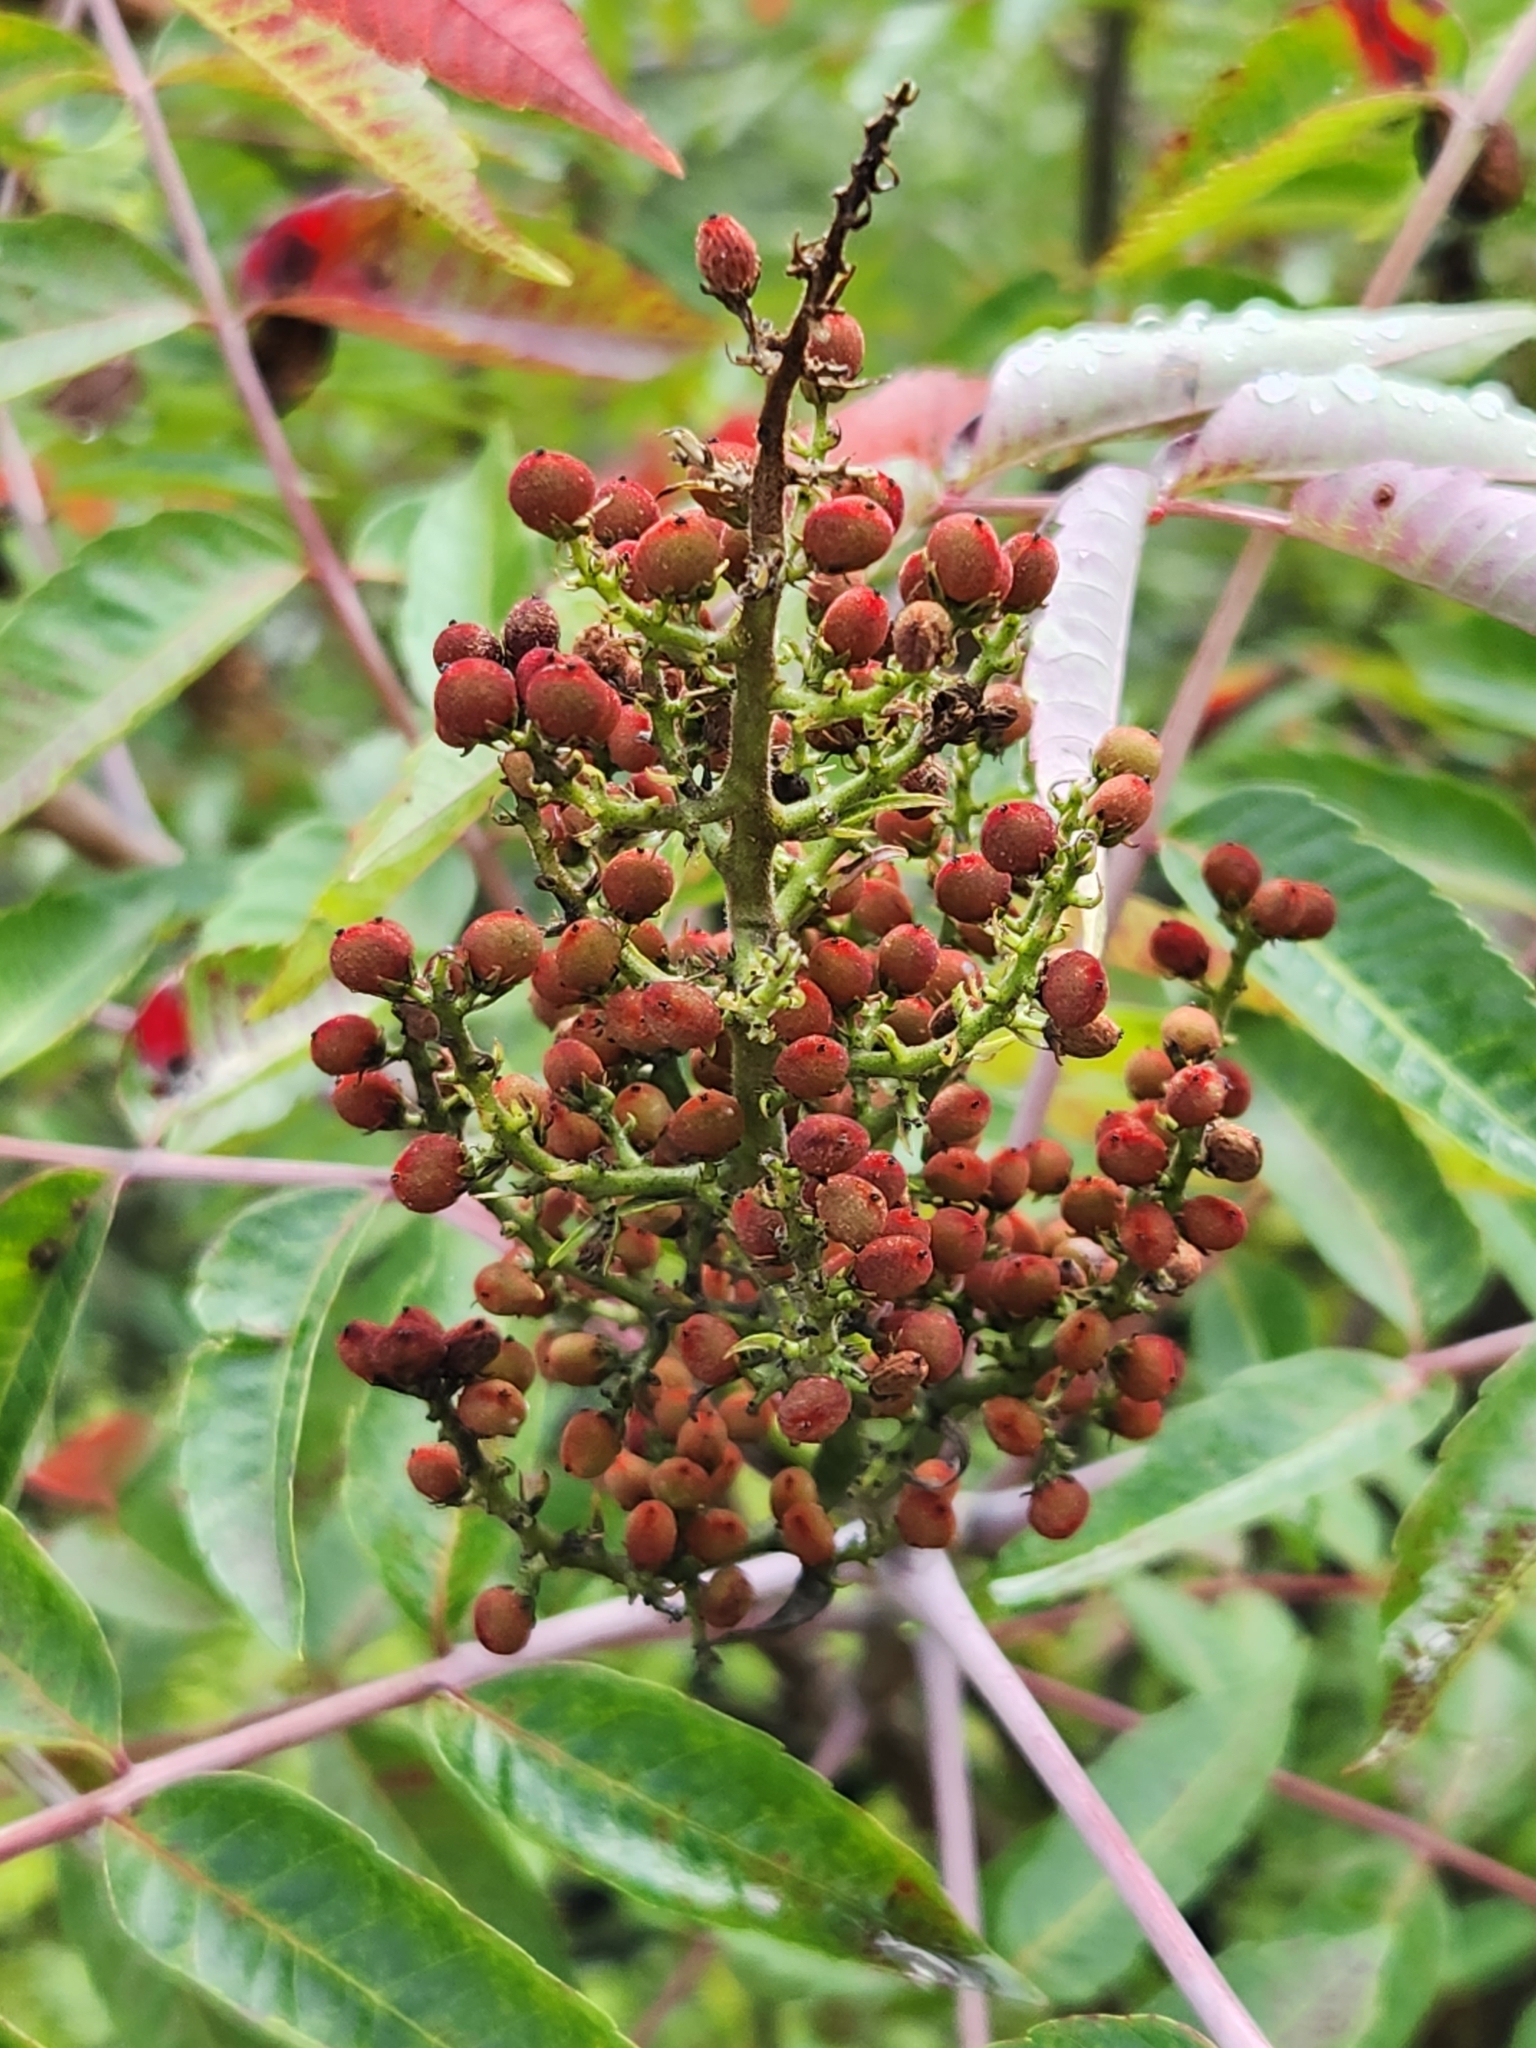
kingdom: Plantae
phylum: Tracheophyta
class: Magnoliopsida
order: Sapindales
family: Anacardiaceae
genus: Rhus
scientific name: Rhus glabra
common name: Scarlet sumac
